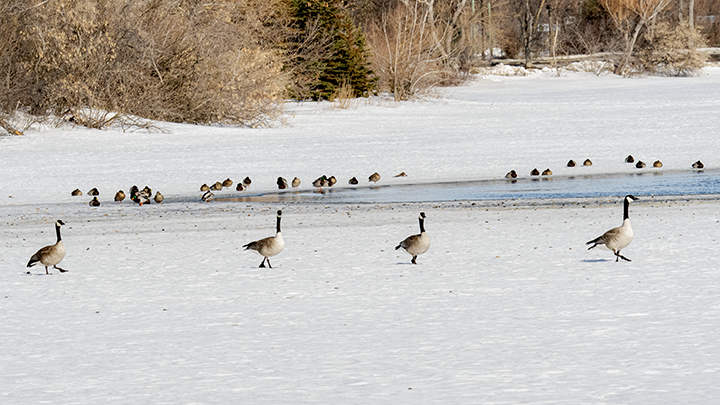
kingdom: Animalia
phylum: Chordata
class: Aves
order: Anseriformes
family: Anatidae
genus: Branta
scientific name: Branta canadensis
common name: Canada goose
